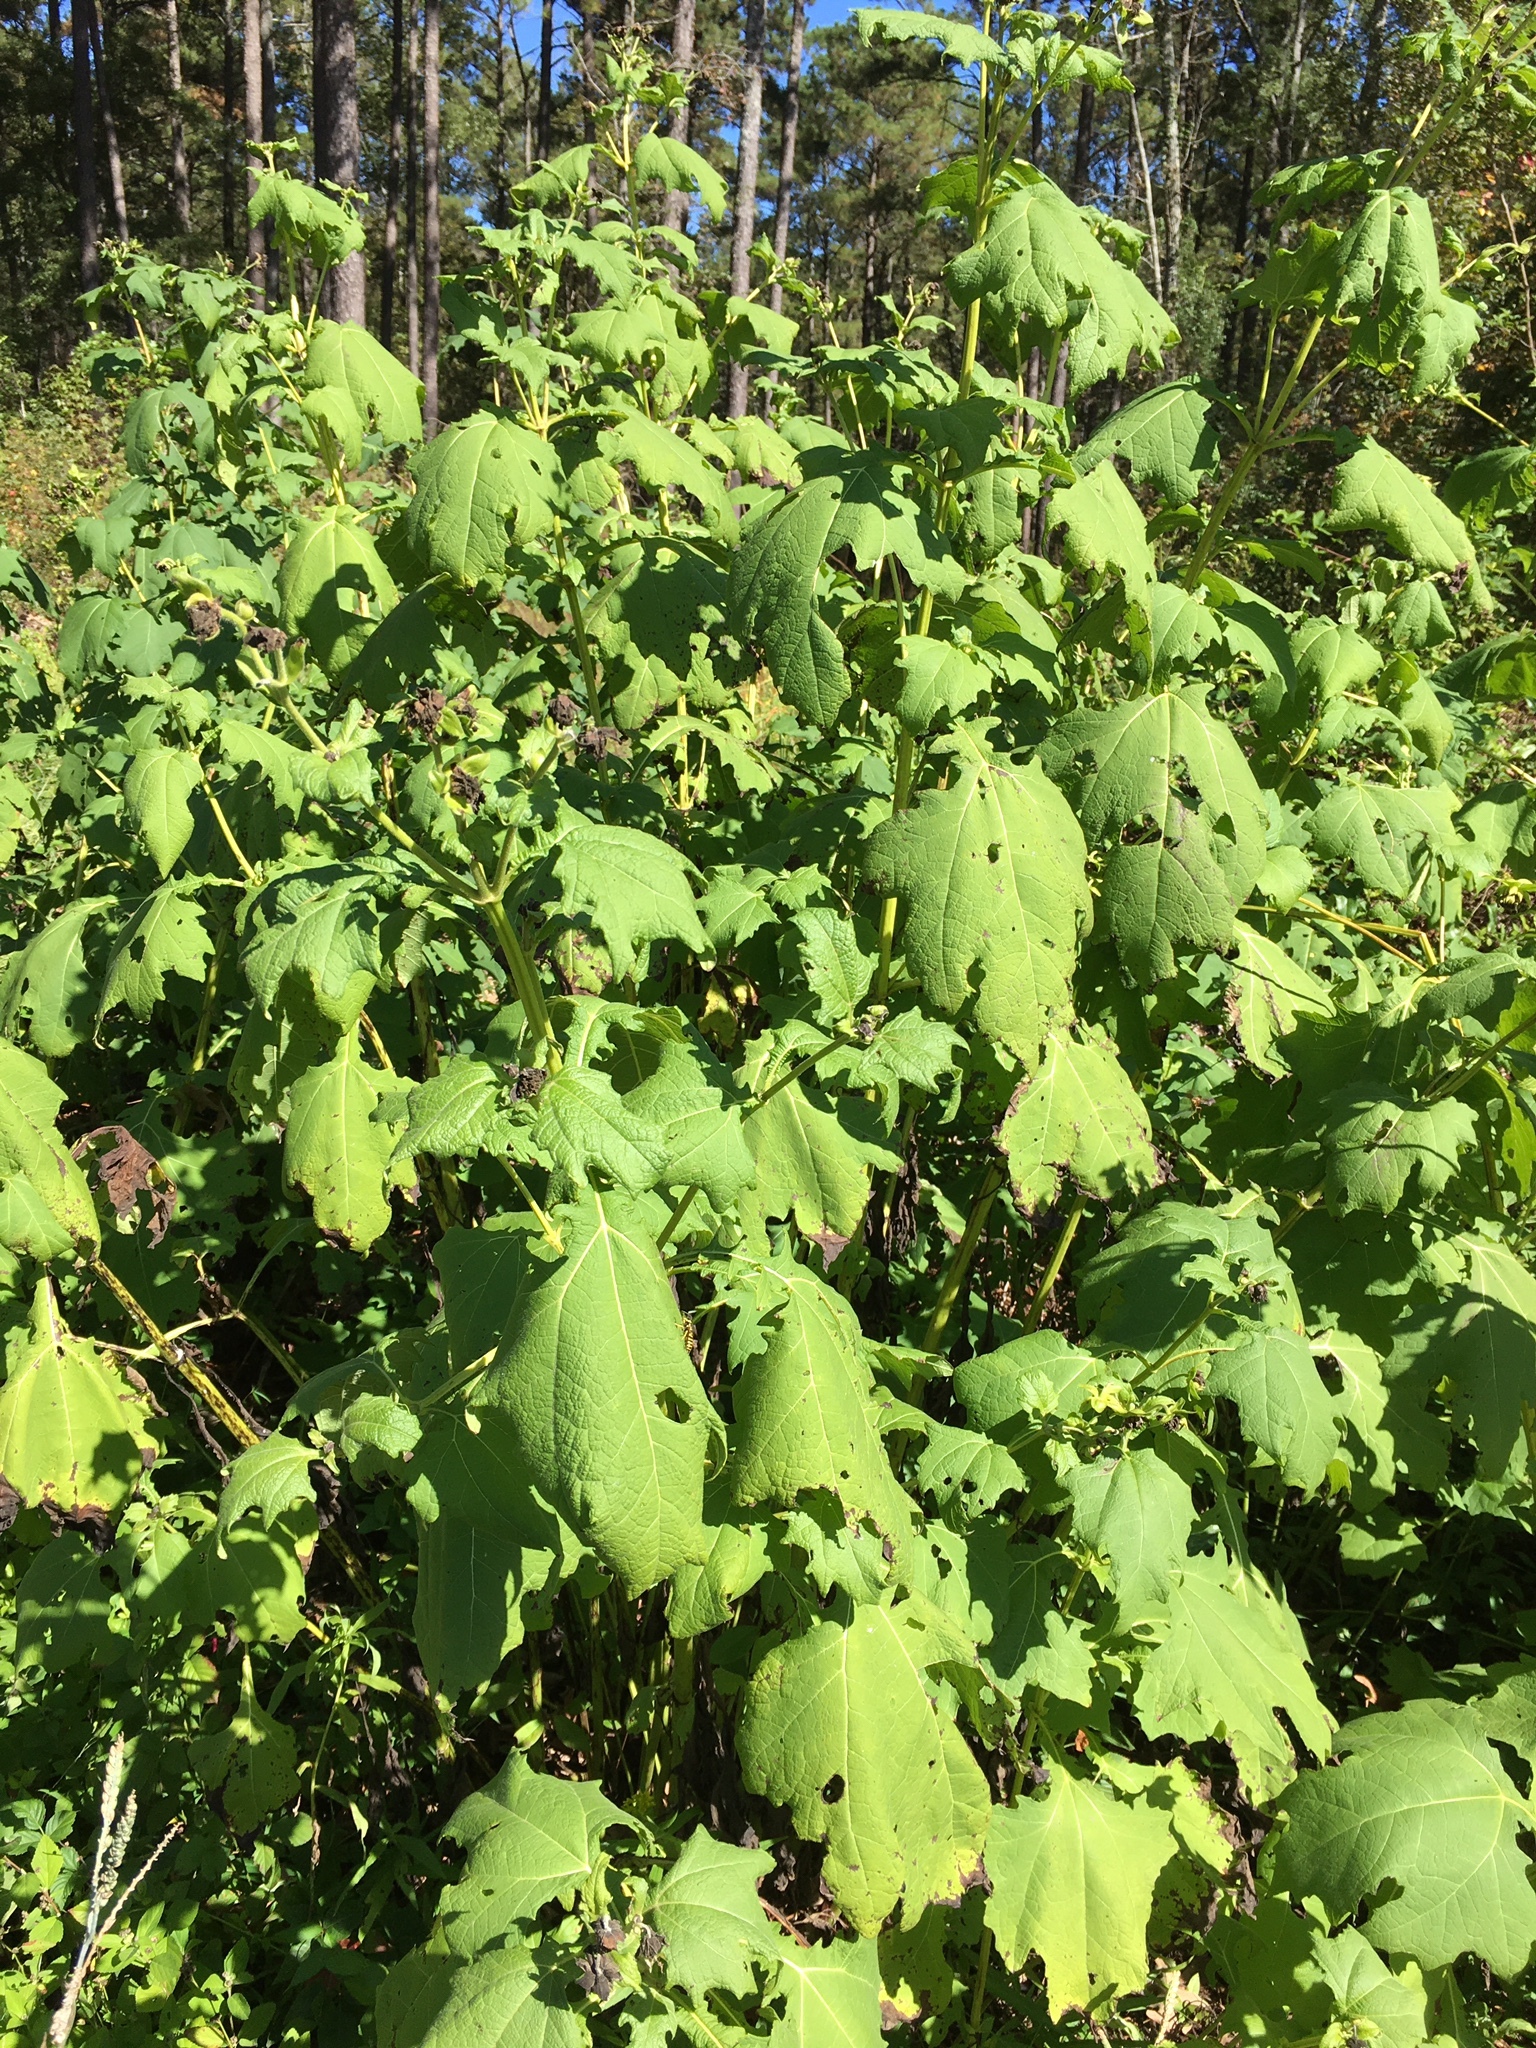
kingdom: Plantae
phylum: Tracheophyta
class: Magnoliopsida
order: Asterales
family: Asteraceae
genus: Smallanthus
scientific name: Smallanthus uvedalia
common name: Bear's-foot
